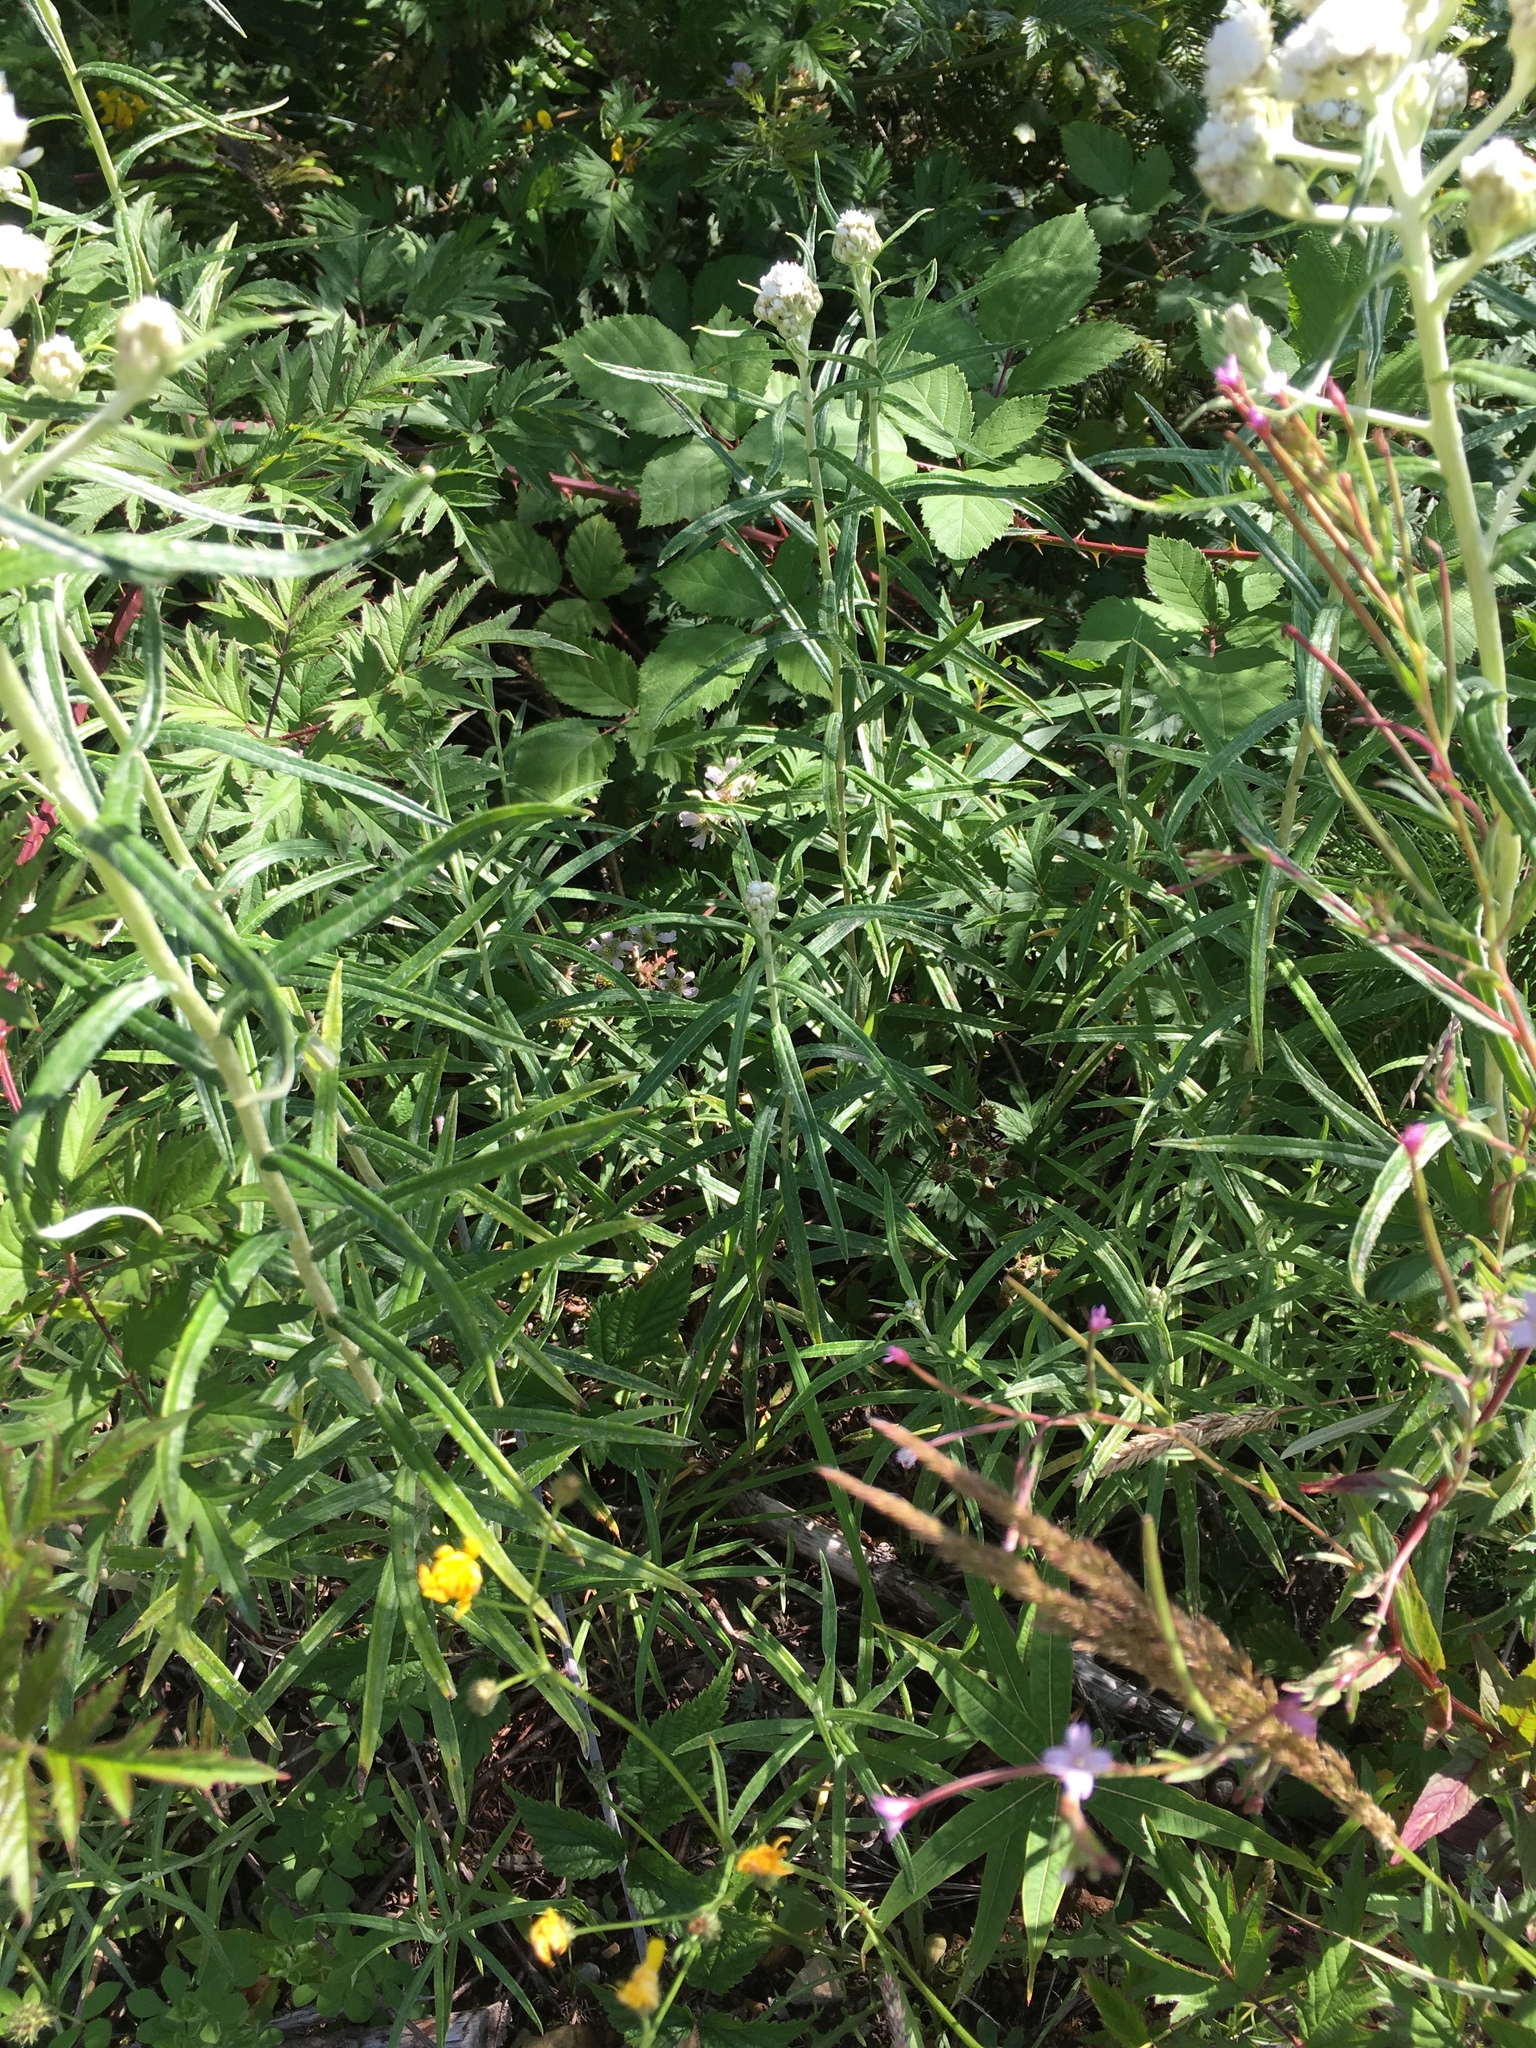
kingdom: Plantae
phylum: Tracheophyta
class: Magnoliopsida
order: Asterales
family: Asteraceae
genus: Anaphalis
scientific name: Anaphalis margaritacea
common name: Pearly everlasting
